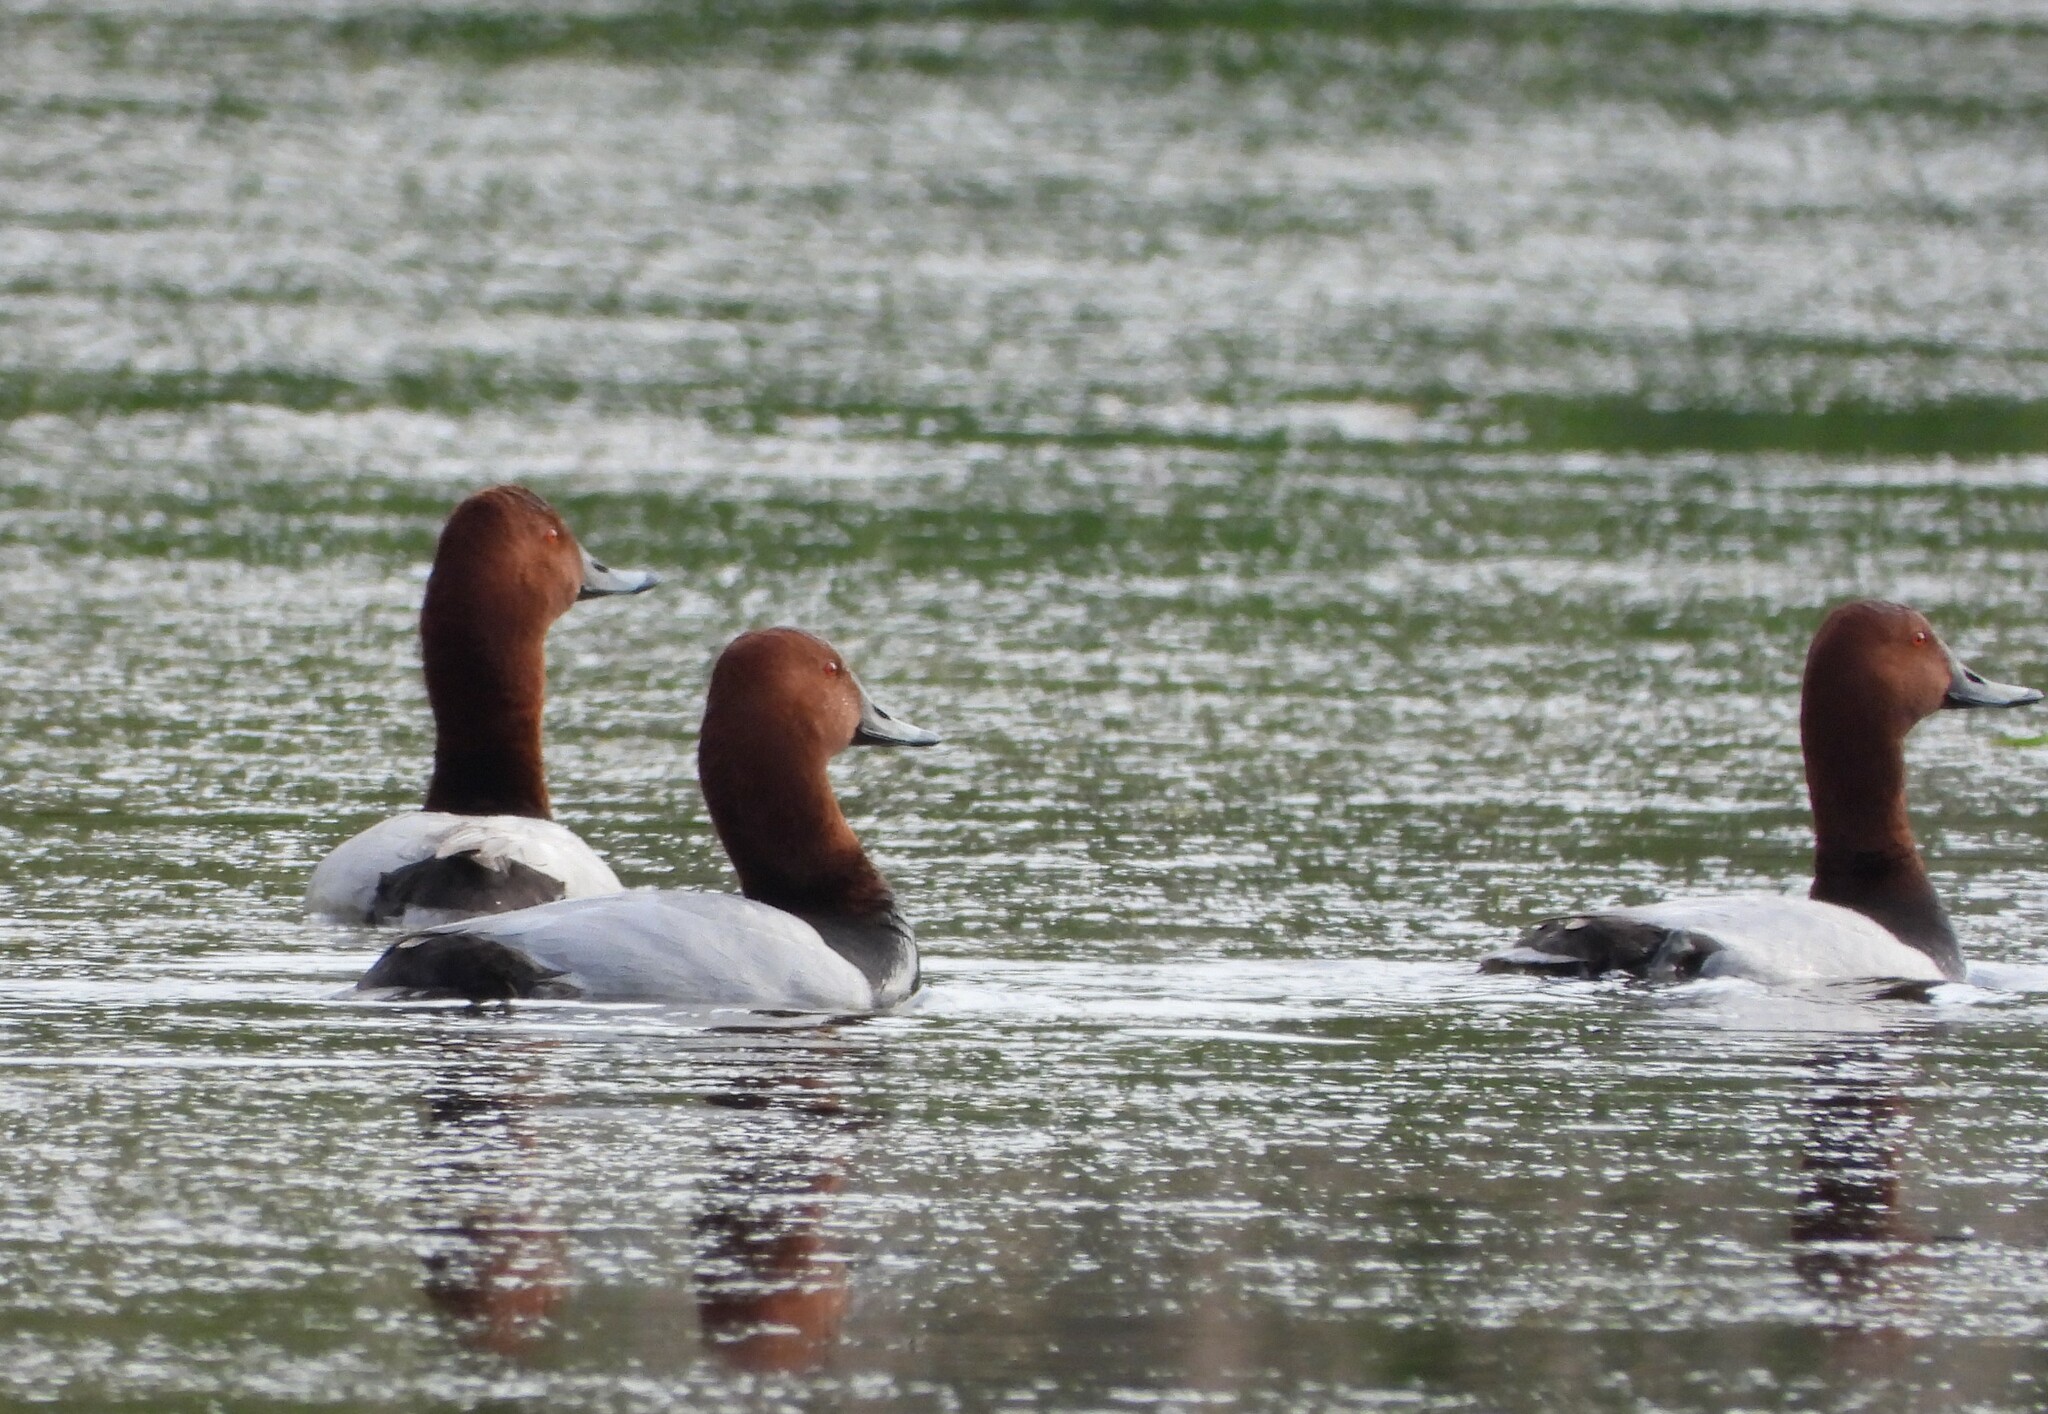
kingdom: Animalia
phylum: Chordata
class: Aves
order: Anseriformes
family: Anatidae
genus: Aythya
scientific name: Aythya ferina
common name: Common pochard
